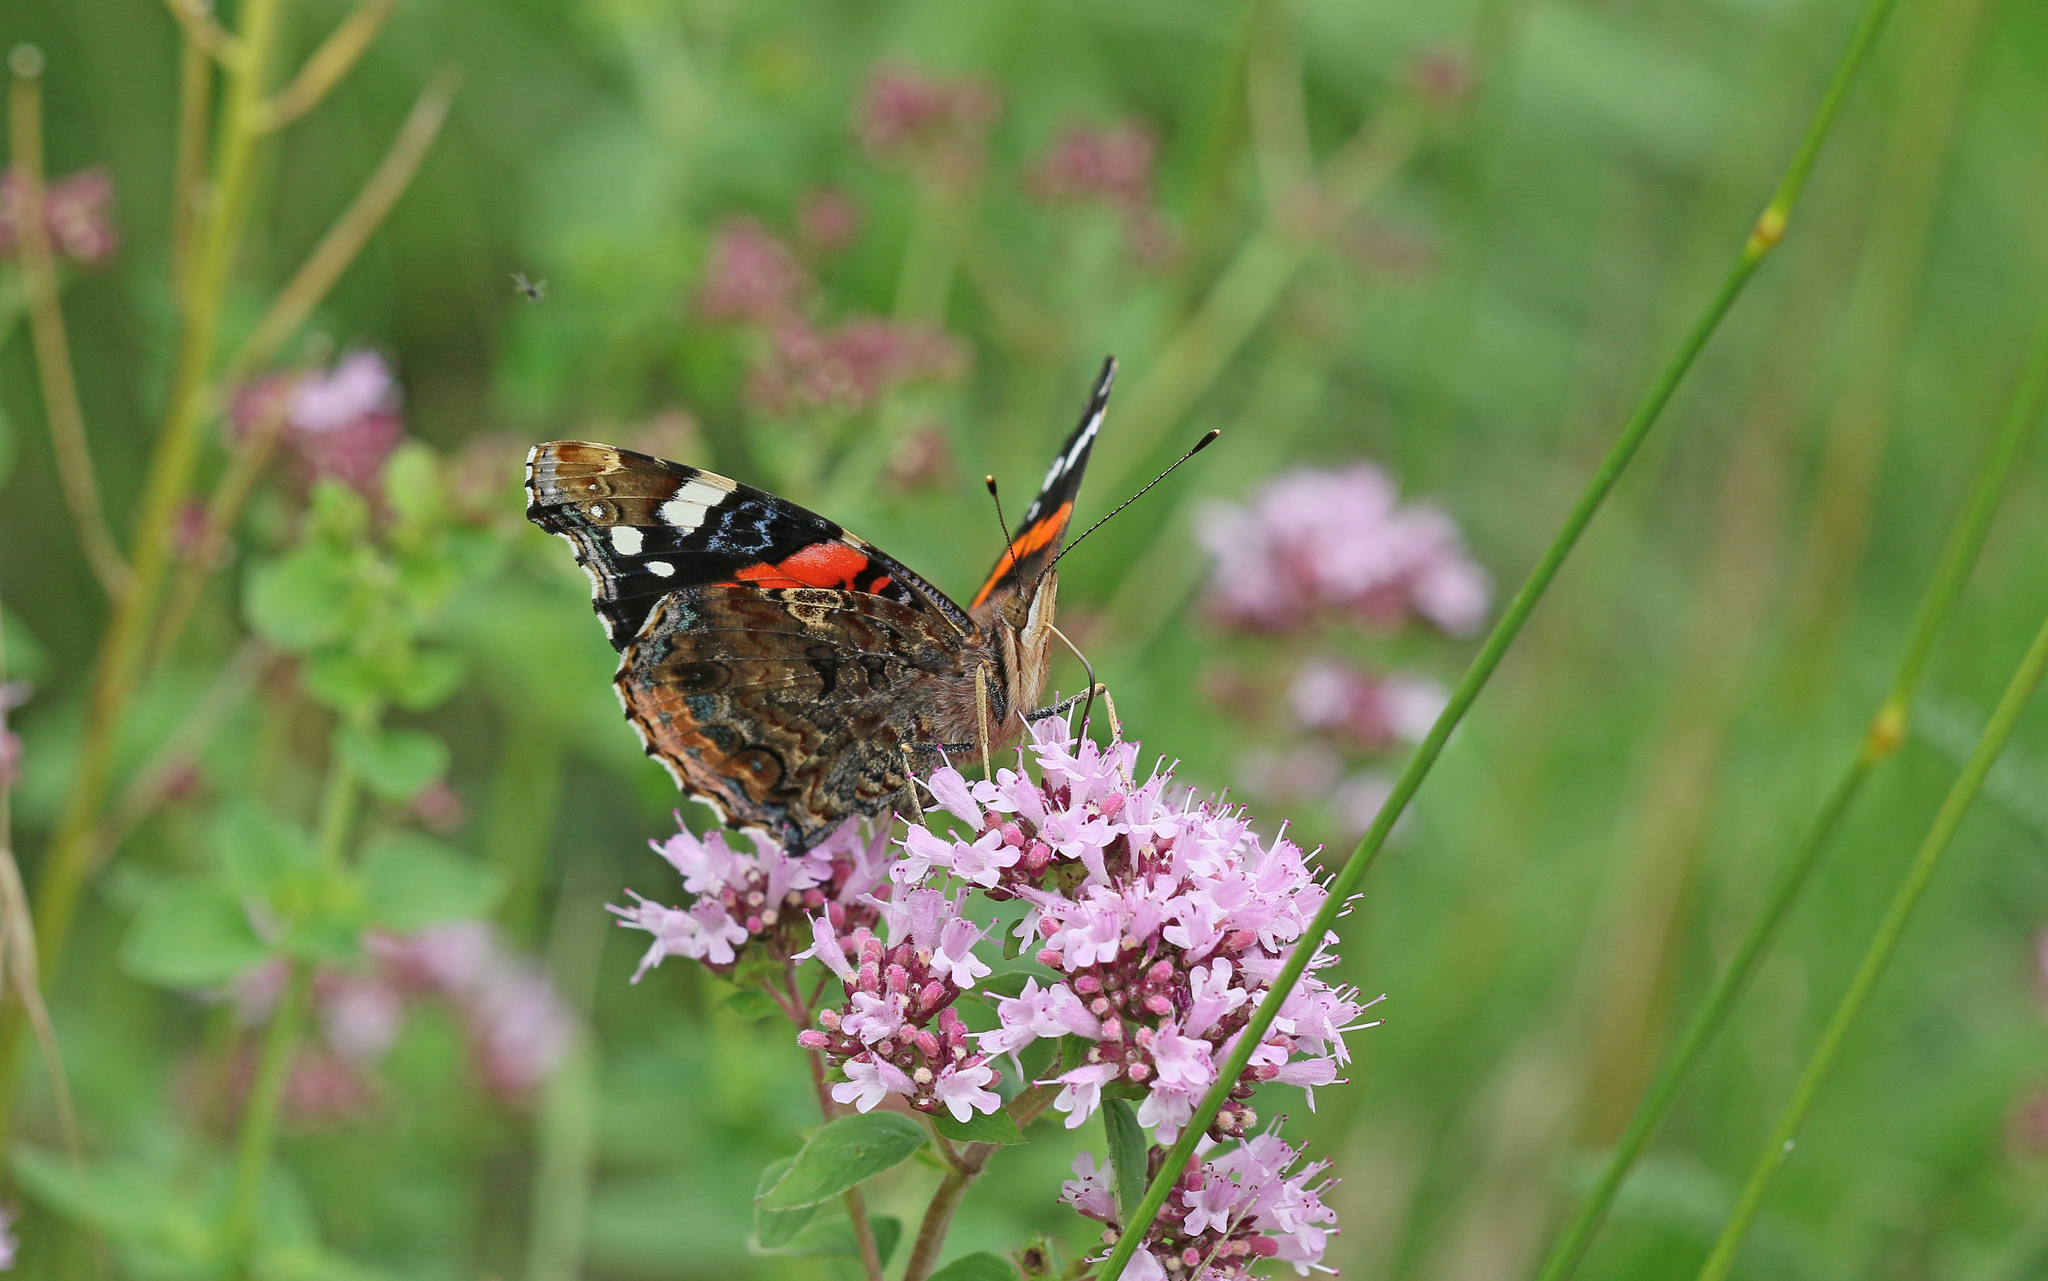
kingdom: Animalia
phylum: Arthropoda
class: Insecta
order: Lepidoptera
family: Nymphalidae
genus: Vanessa
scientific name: Vanessa atalanta
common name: Red admiral
